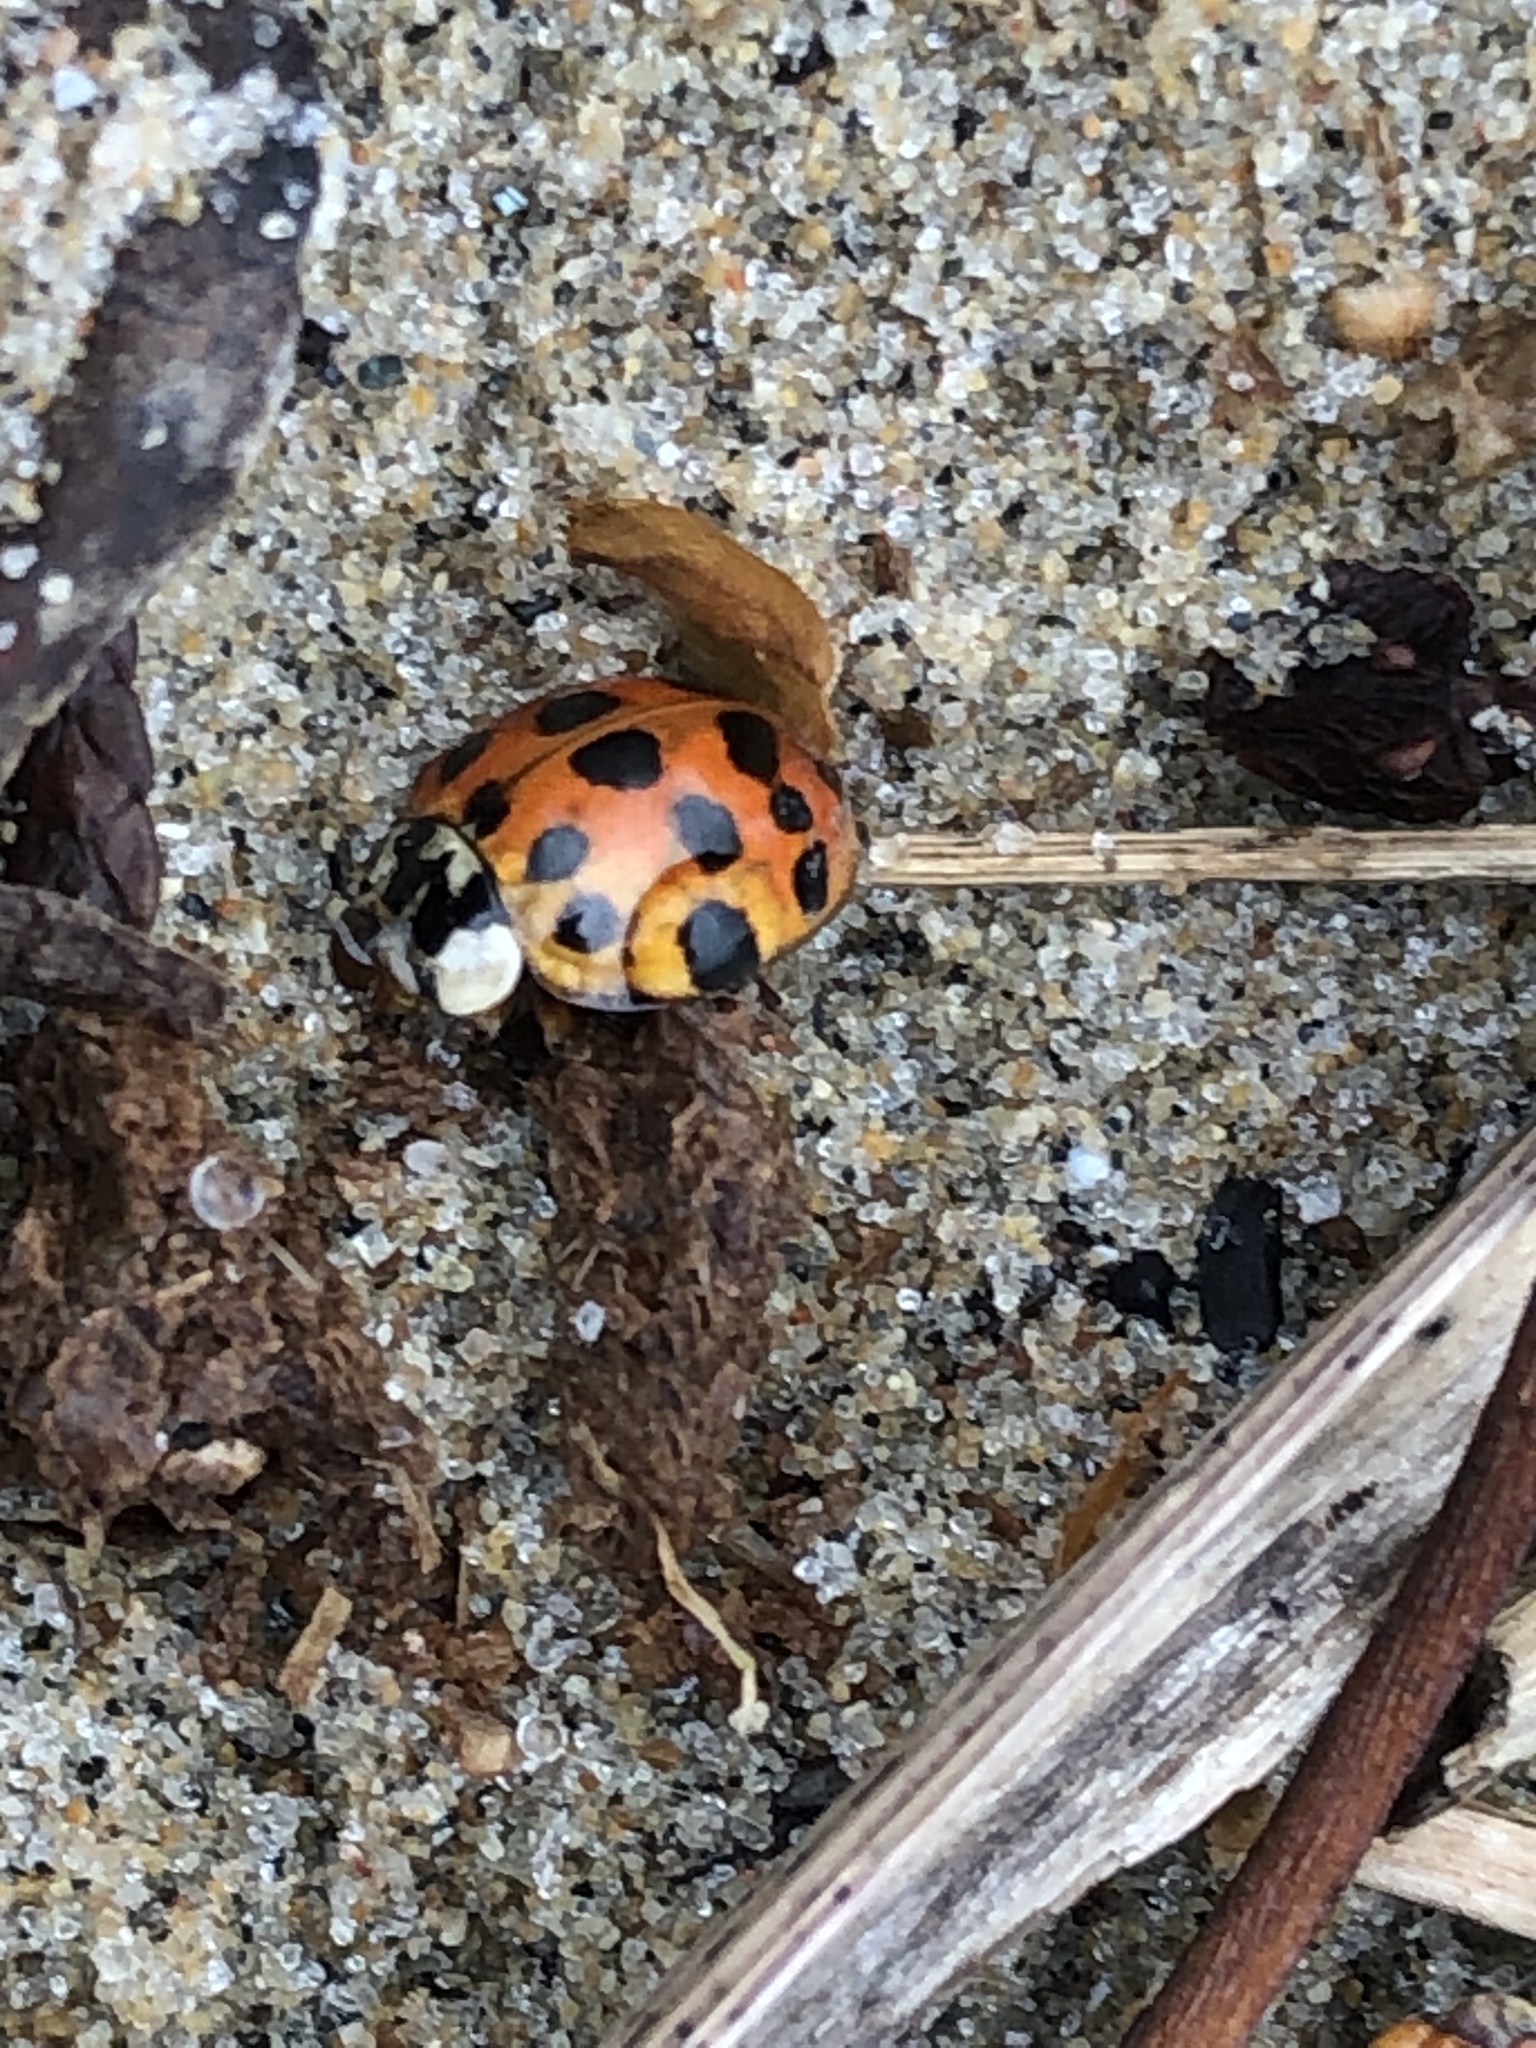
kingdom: Animalia
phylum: Arthropoda
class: Insecta
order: Coleoptera
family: Coccinellidae
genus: Harmonia
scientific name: Harmonia axyridis
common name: Harlequin ladybird
